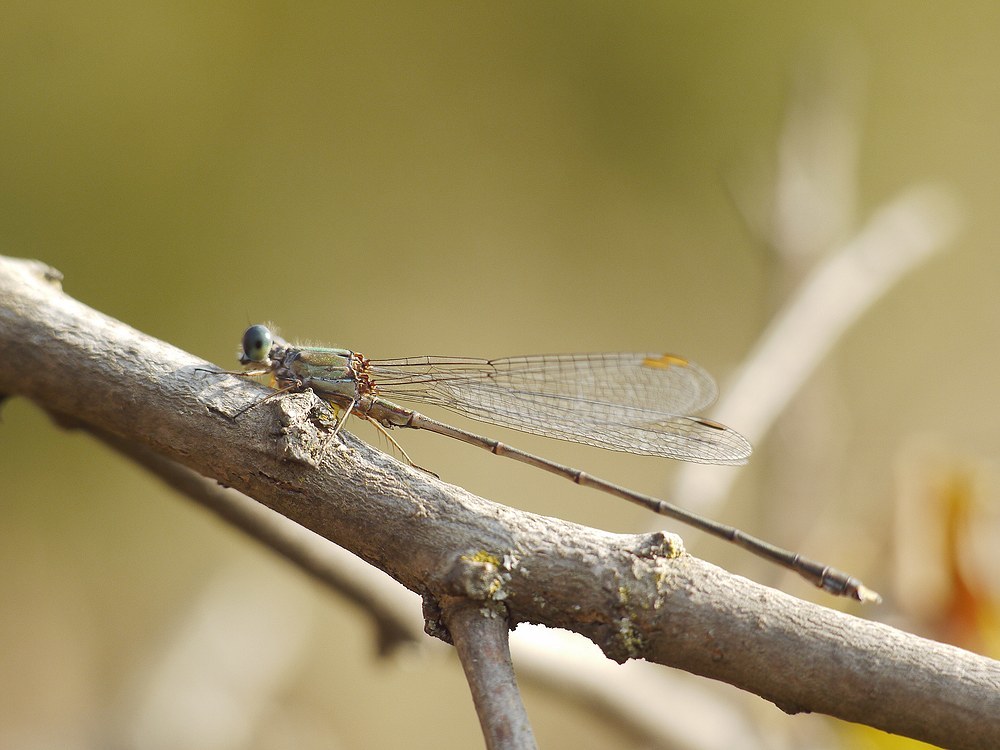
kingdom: Animalia
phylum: Arthropoda
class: Insecta
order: Odonata
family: Lestidae
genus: Chalcolestes
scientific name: Chalcolestes parvidens
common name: Eastern willow spreadwing
